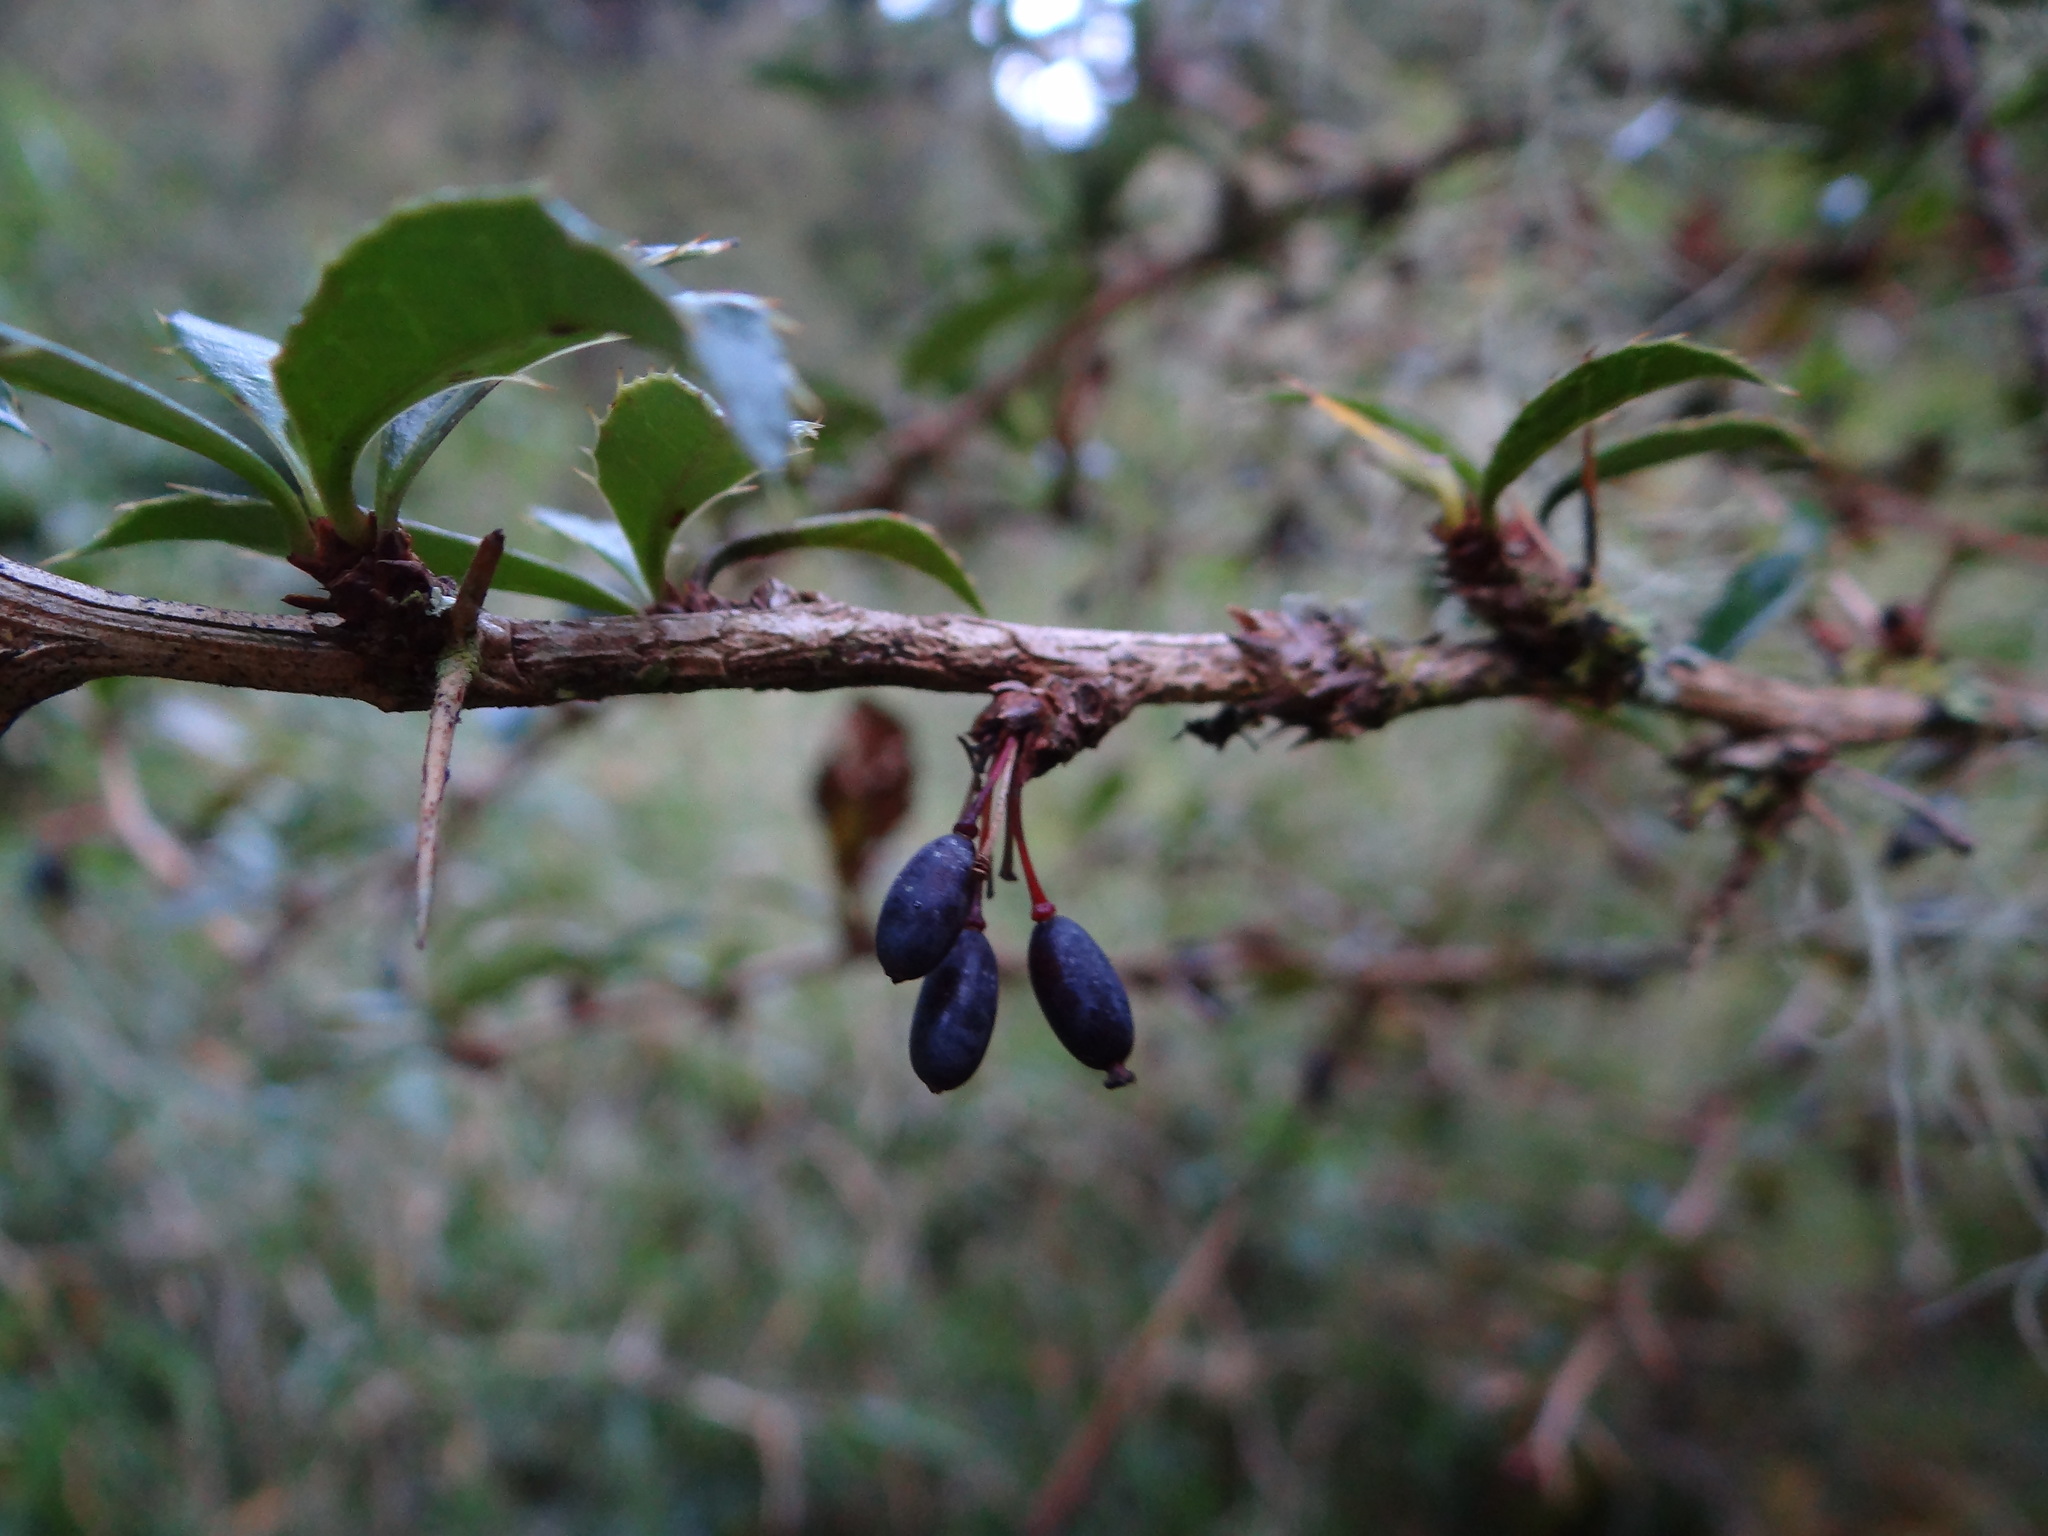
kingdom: Plantae
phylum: Tracheophyta
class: Magnoliopsida
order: Ranunculales
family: Berberidaceae
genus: Berberis
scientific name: Berberis kawakamii
